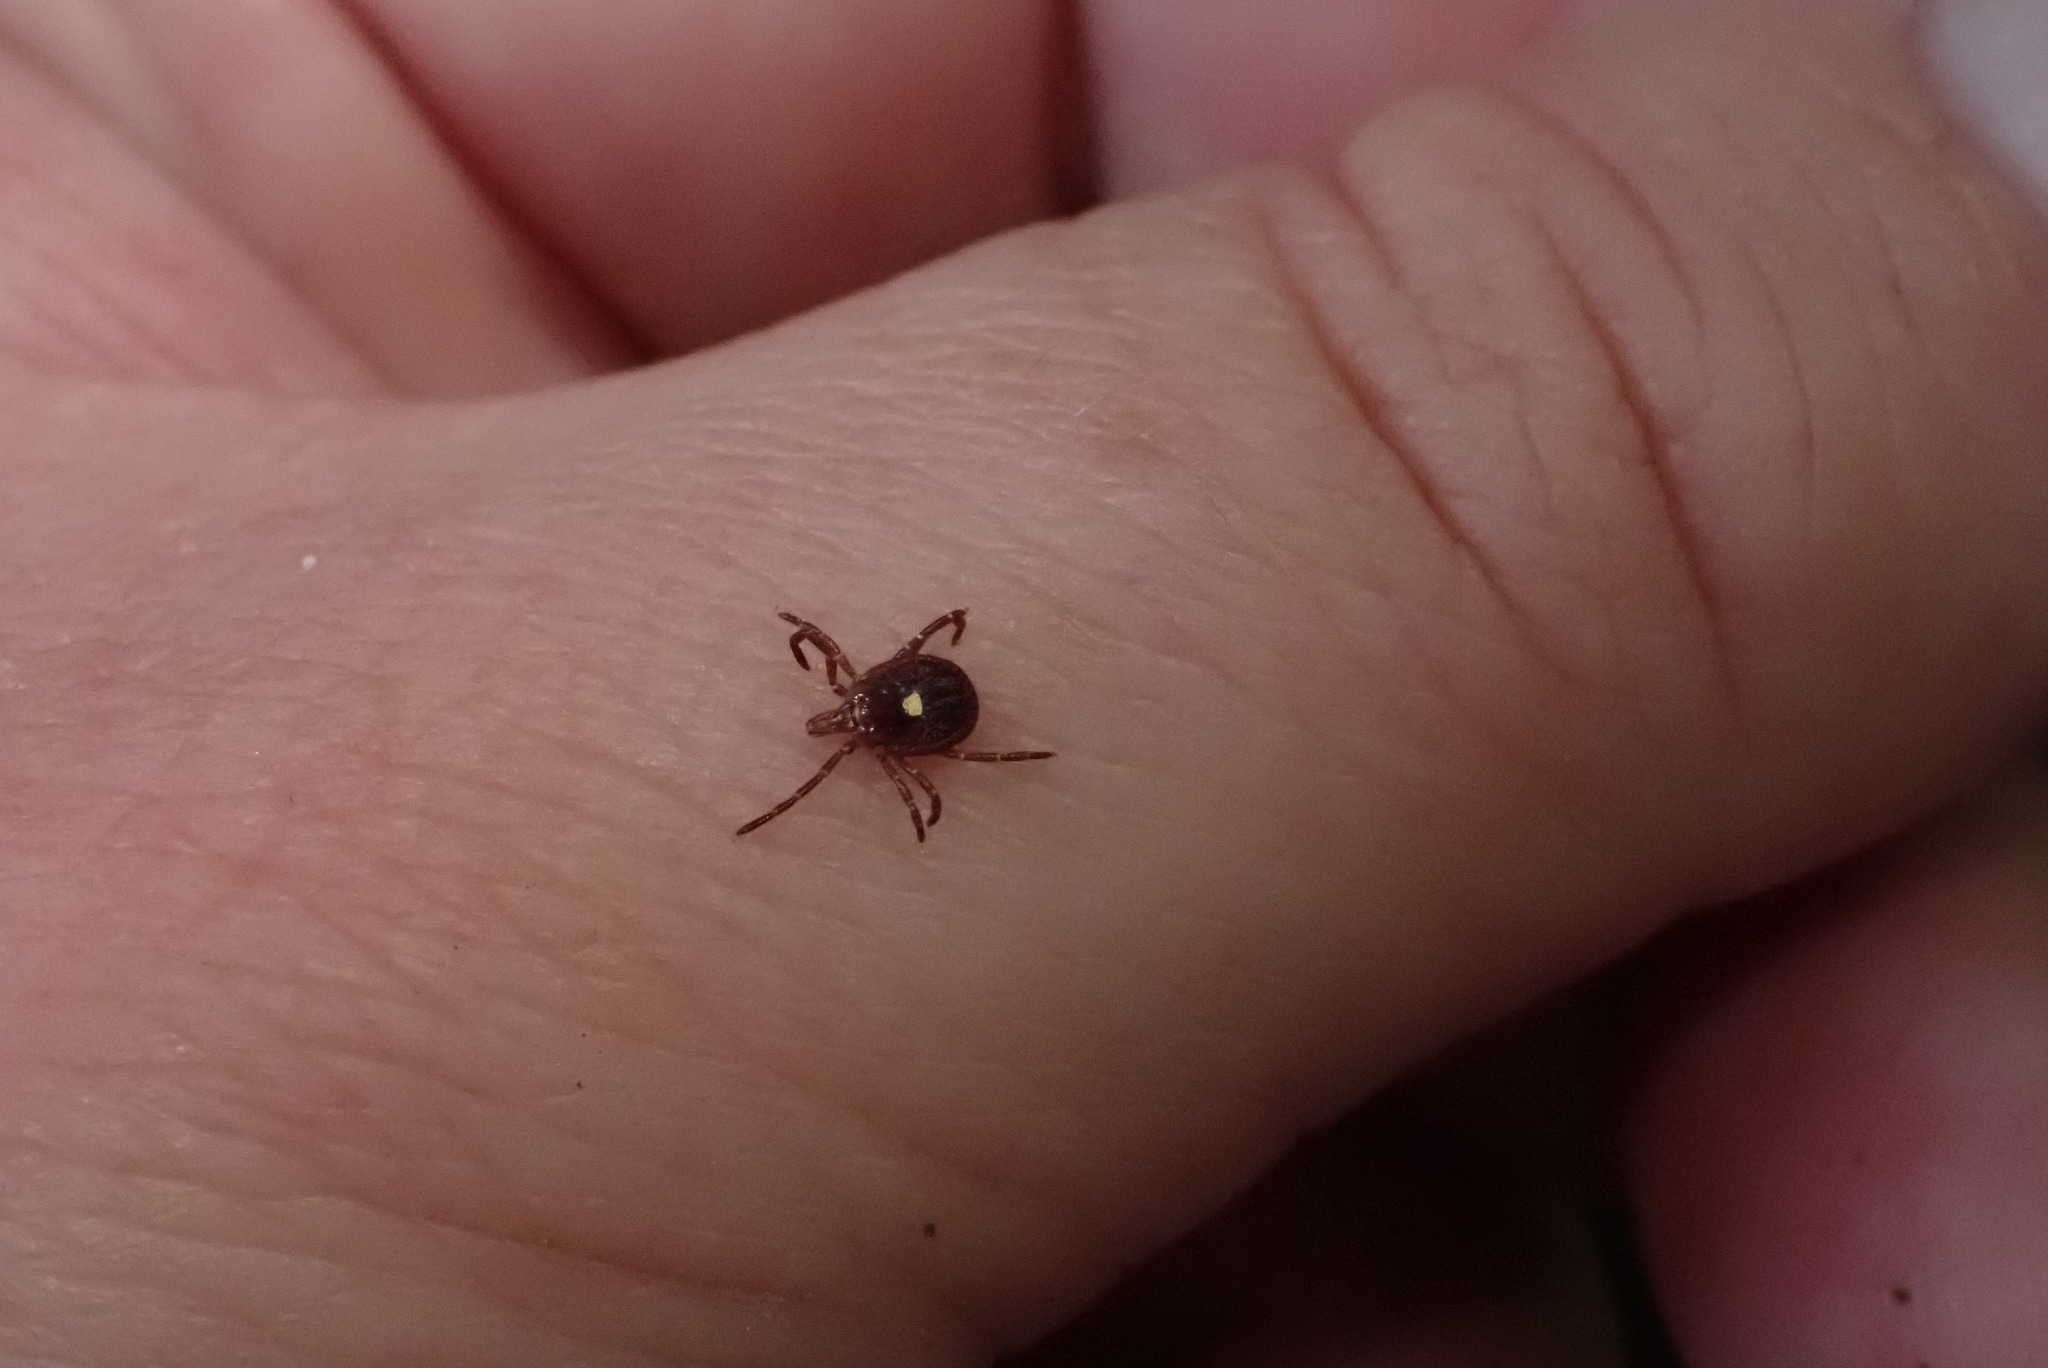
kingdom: Animalia
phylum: Arthropoda
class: Arachnida
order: Ixodida
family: Ixodidae
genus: Amblyomma
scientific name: Amblyomma americanum
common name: Lone star tick
